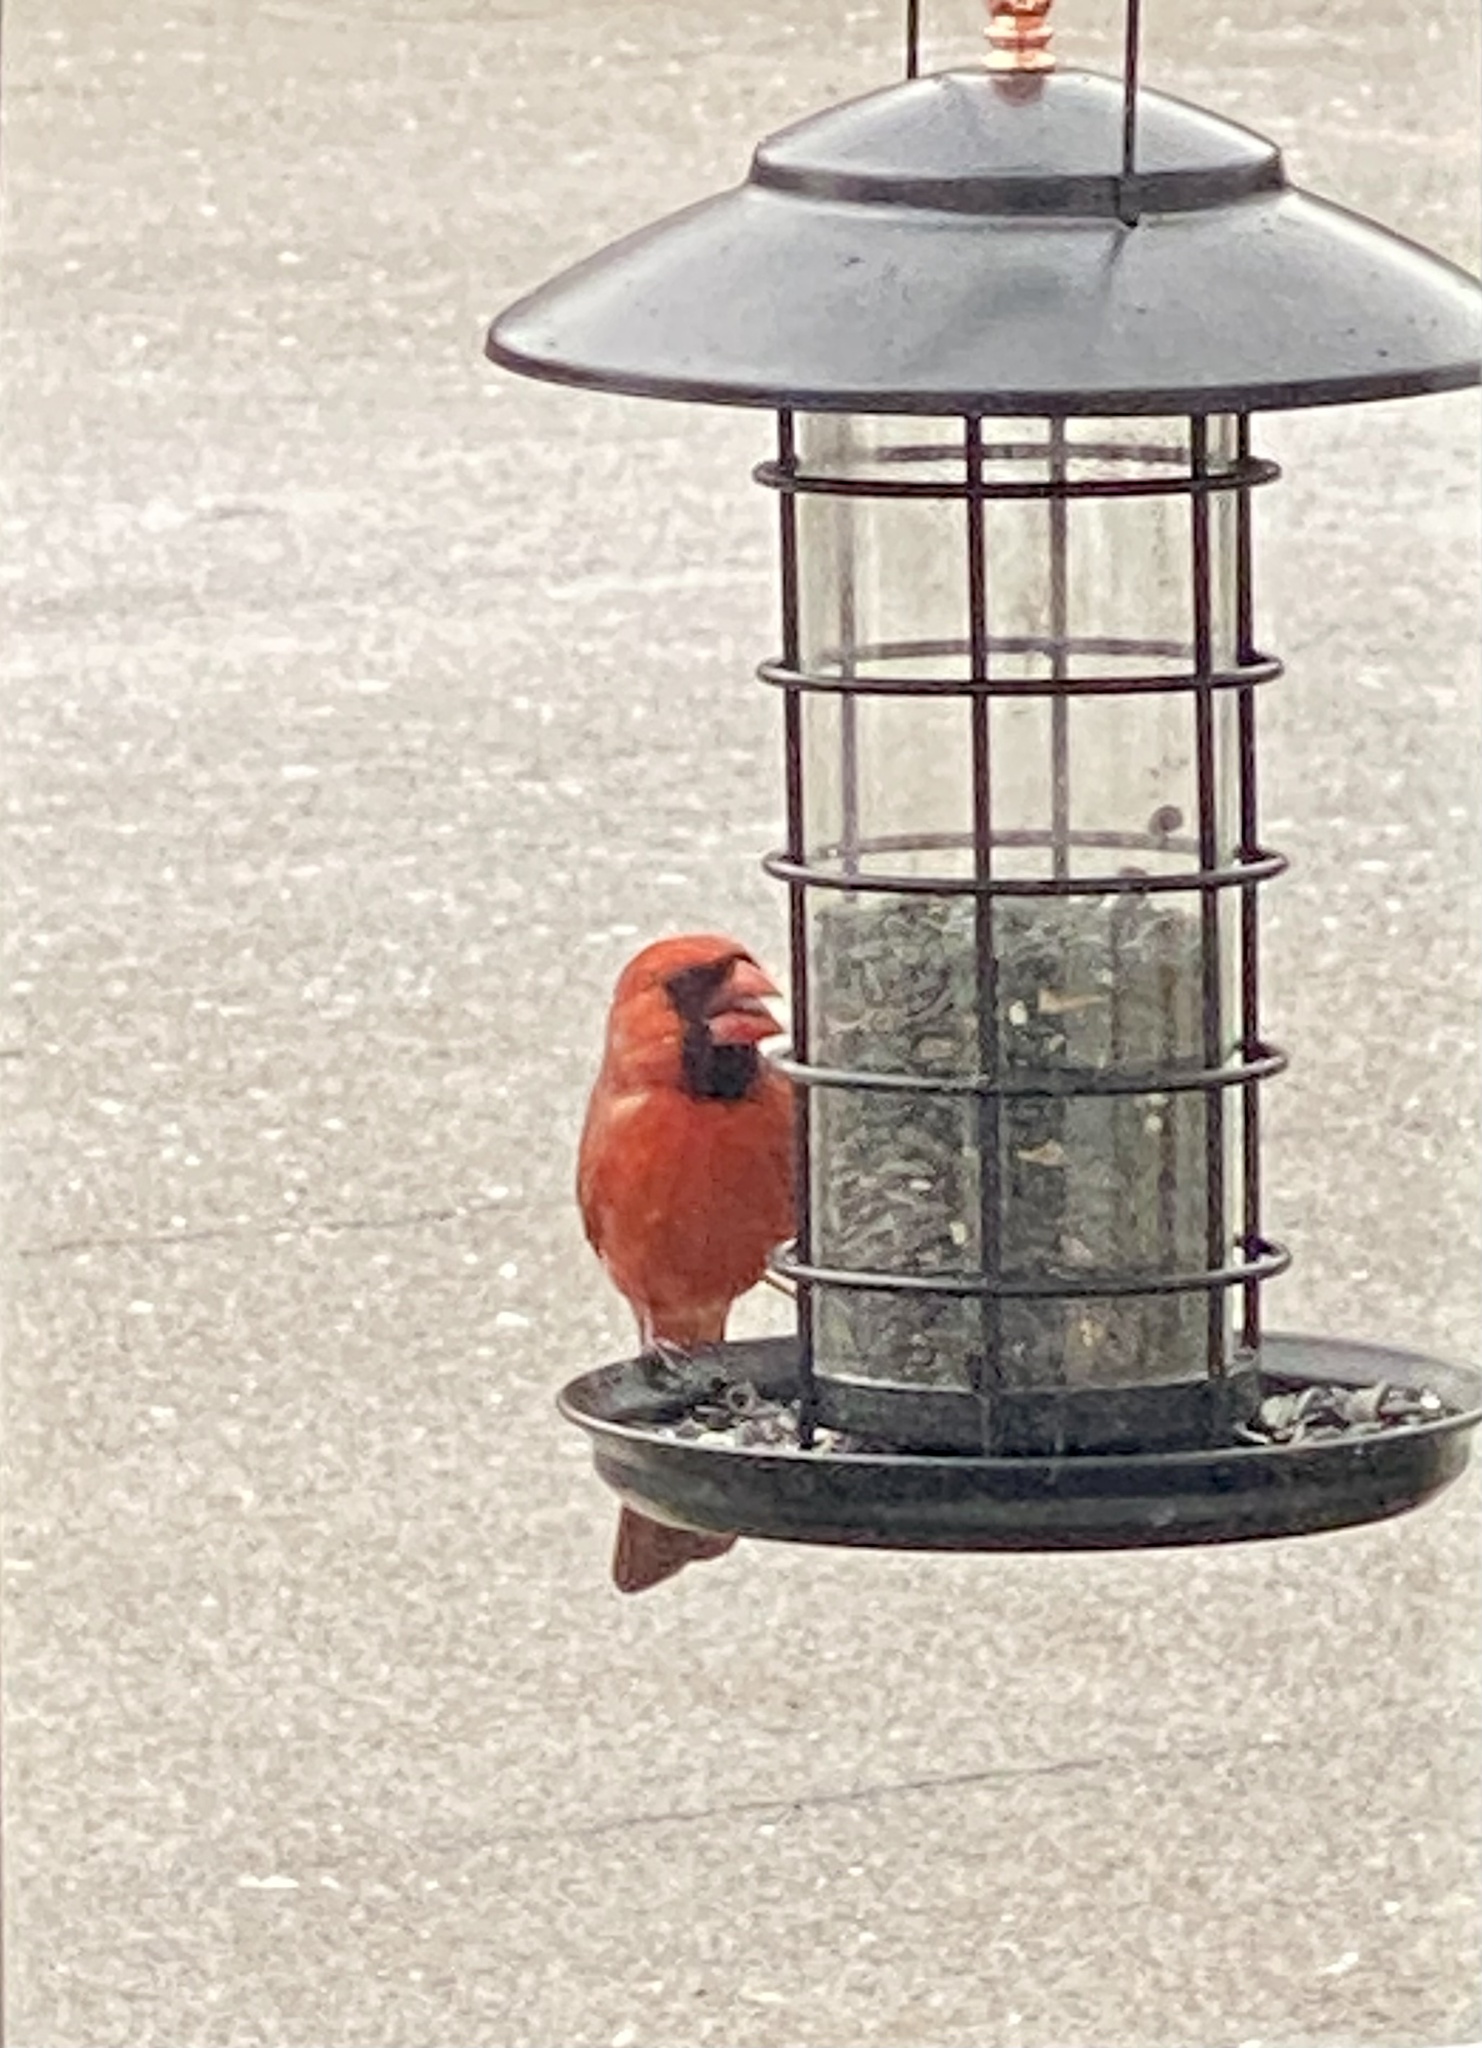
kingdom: Animalia
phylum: Chordata
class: Aves
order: Passeriformes
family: Cardinalidae
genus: Cardinalis
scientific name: Cardinalis cardinalis
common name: Northern cardinal
